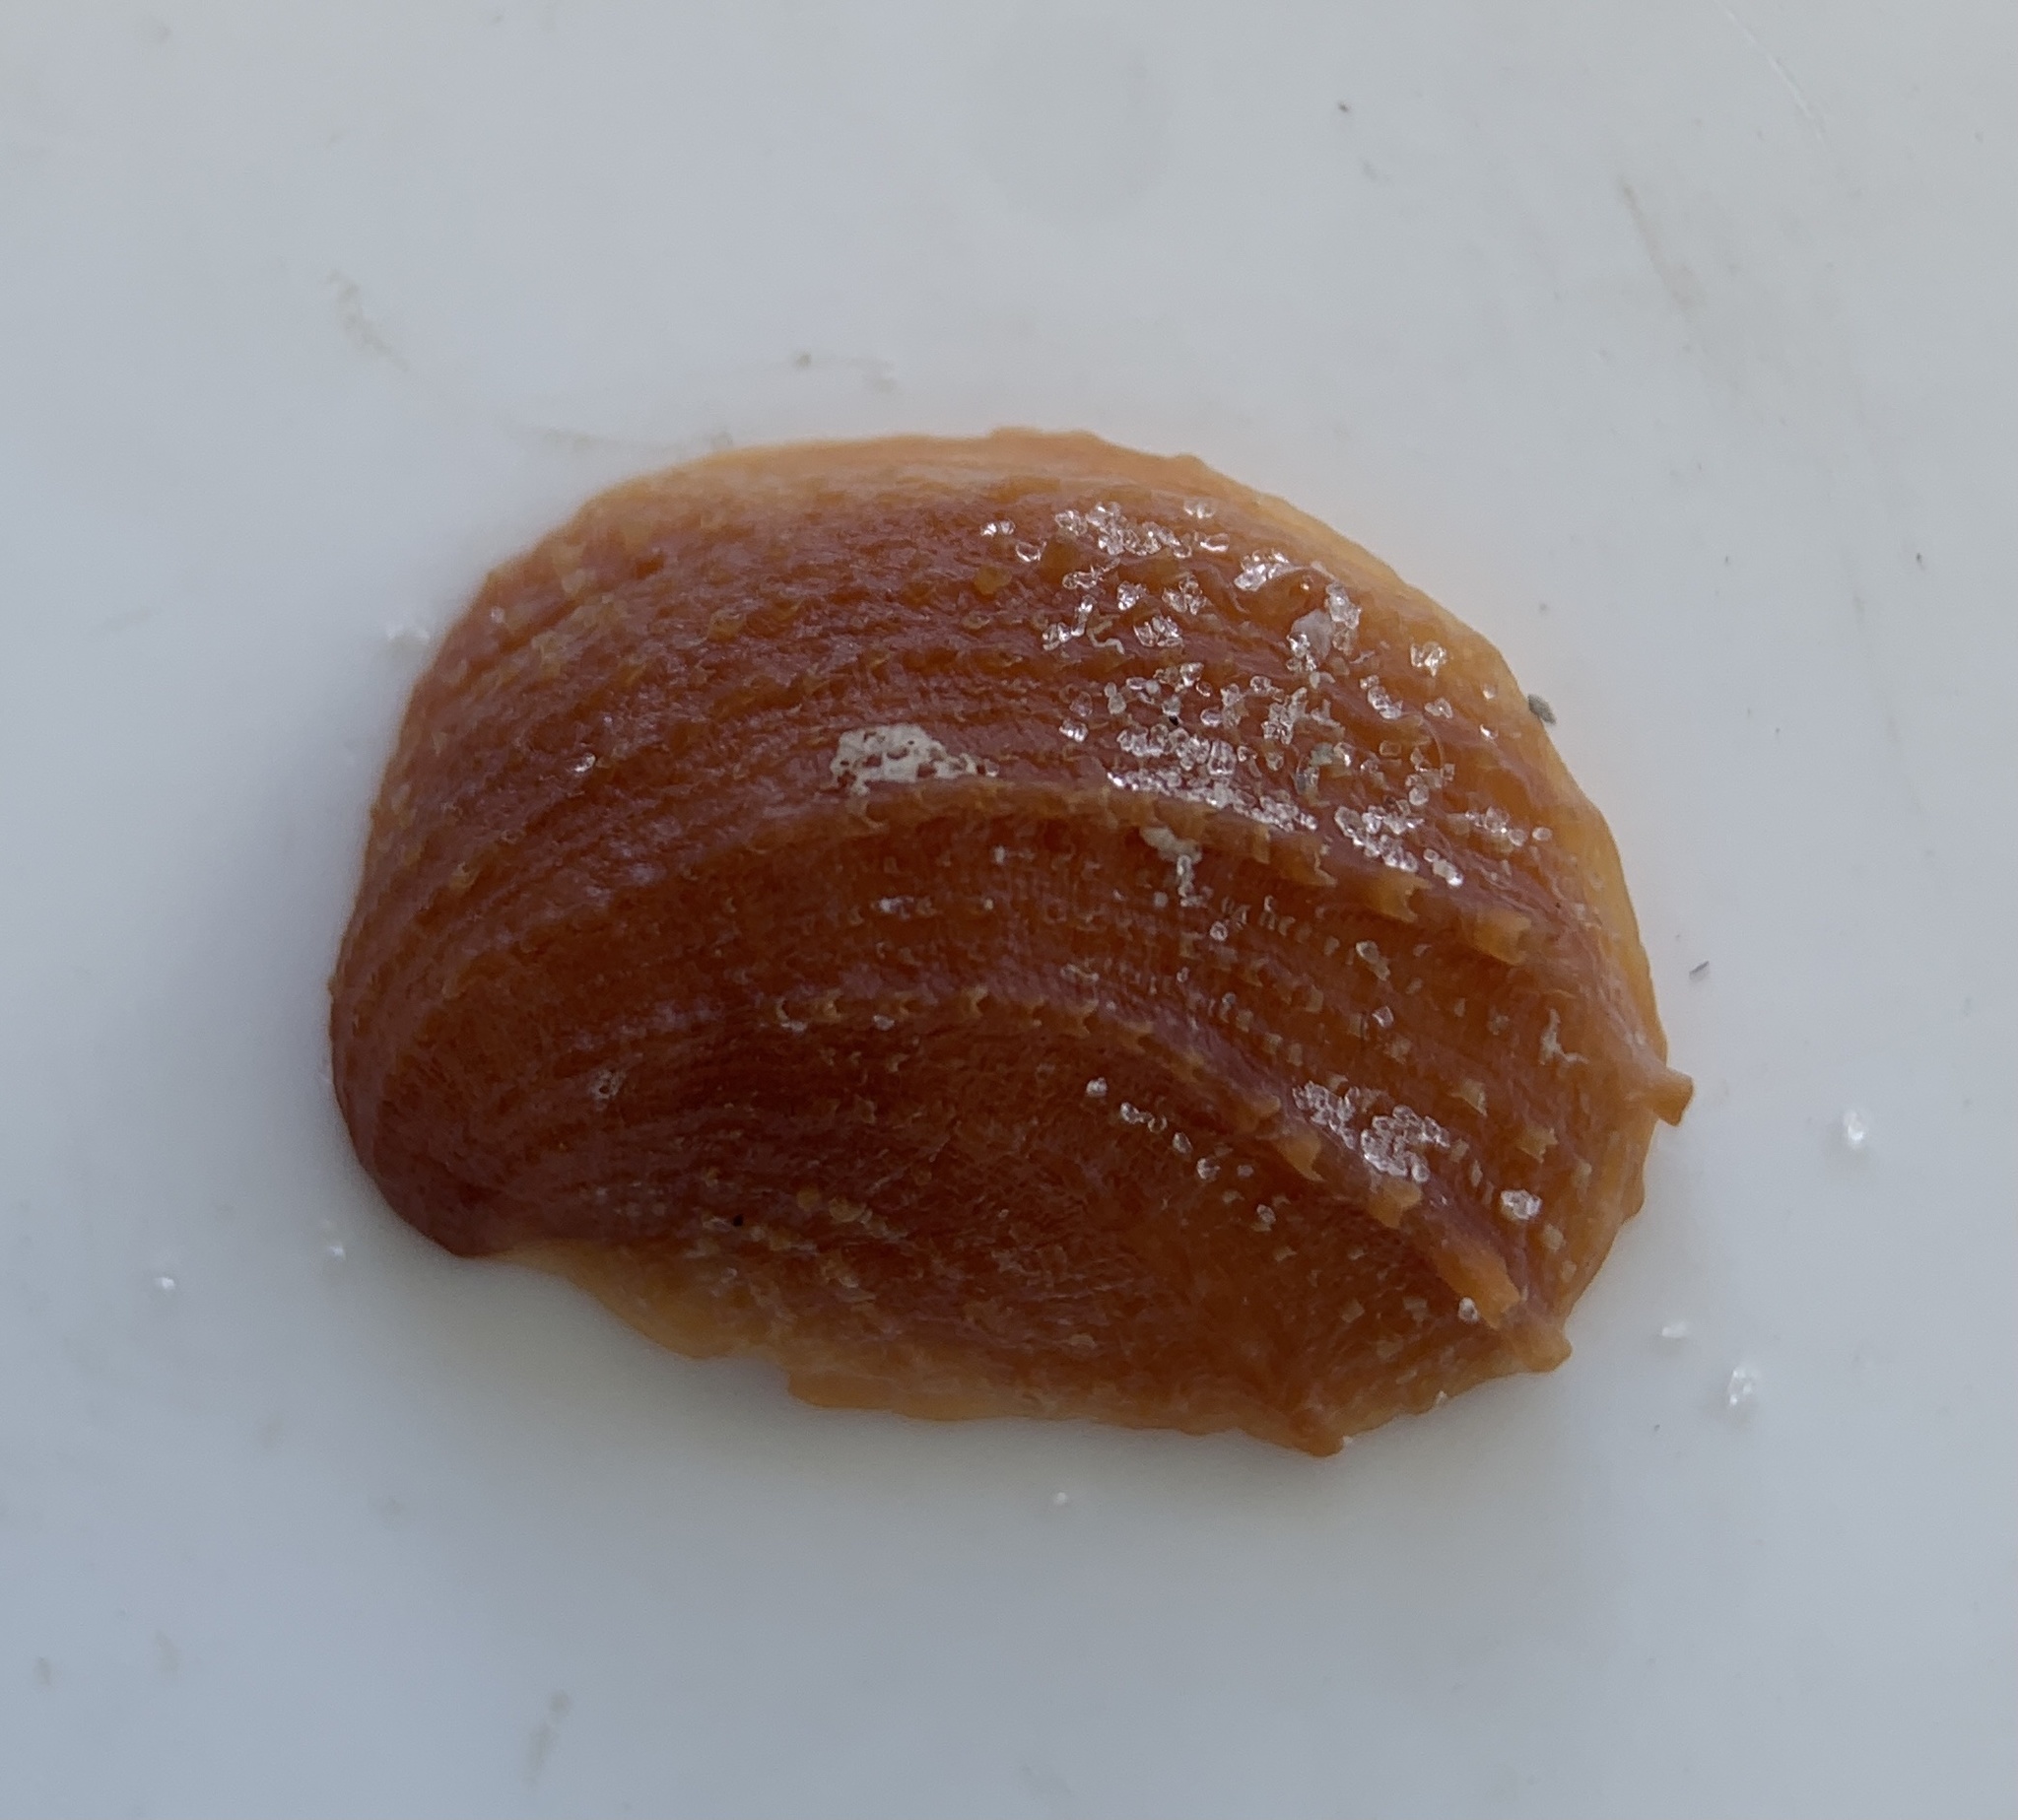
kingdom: Animalia
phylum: Mollusca
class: Gastropoda
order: Littorinimorpha
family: Calyptraeidae
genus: Bostrycapulus
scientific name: Bostrycapulus aculeatus
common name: Spiny slippersnail
